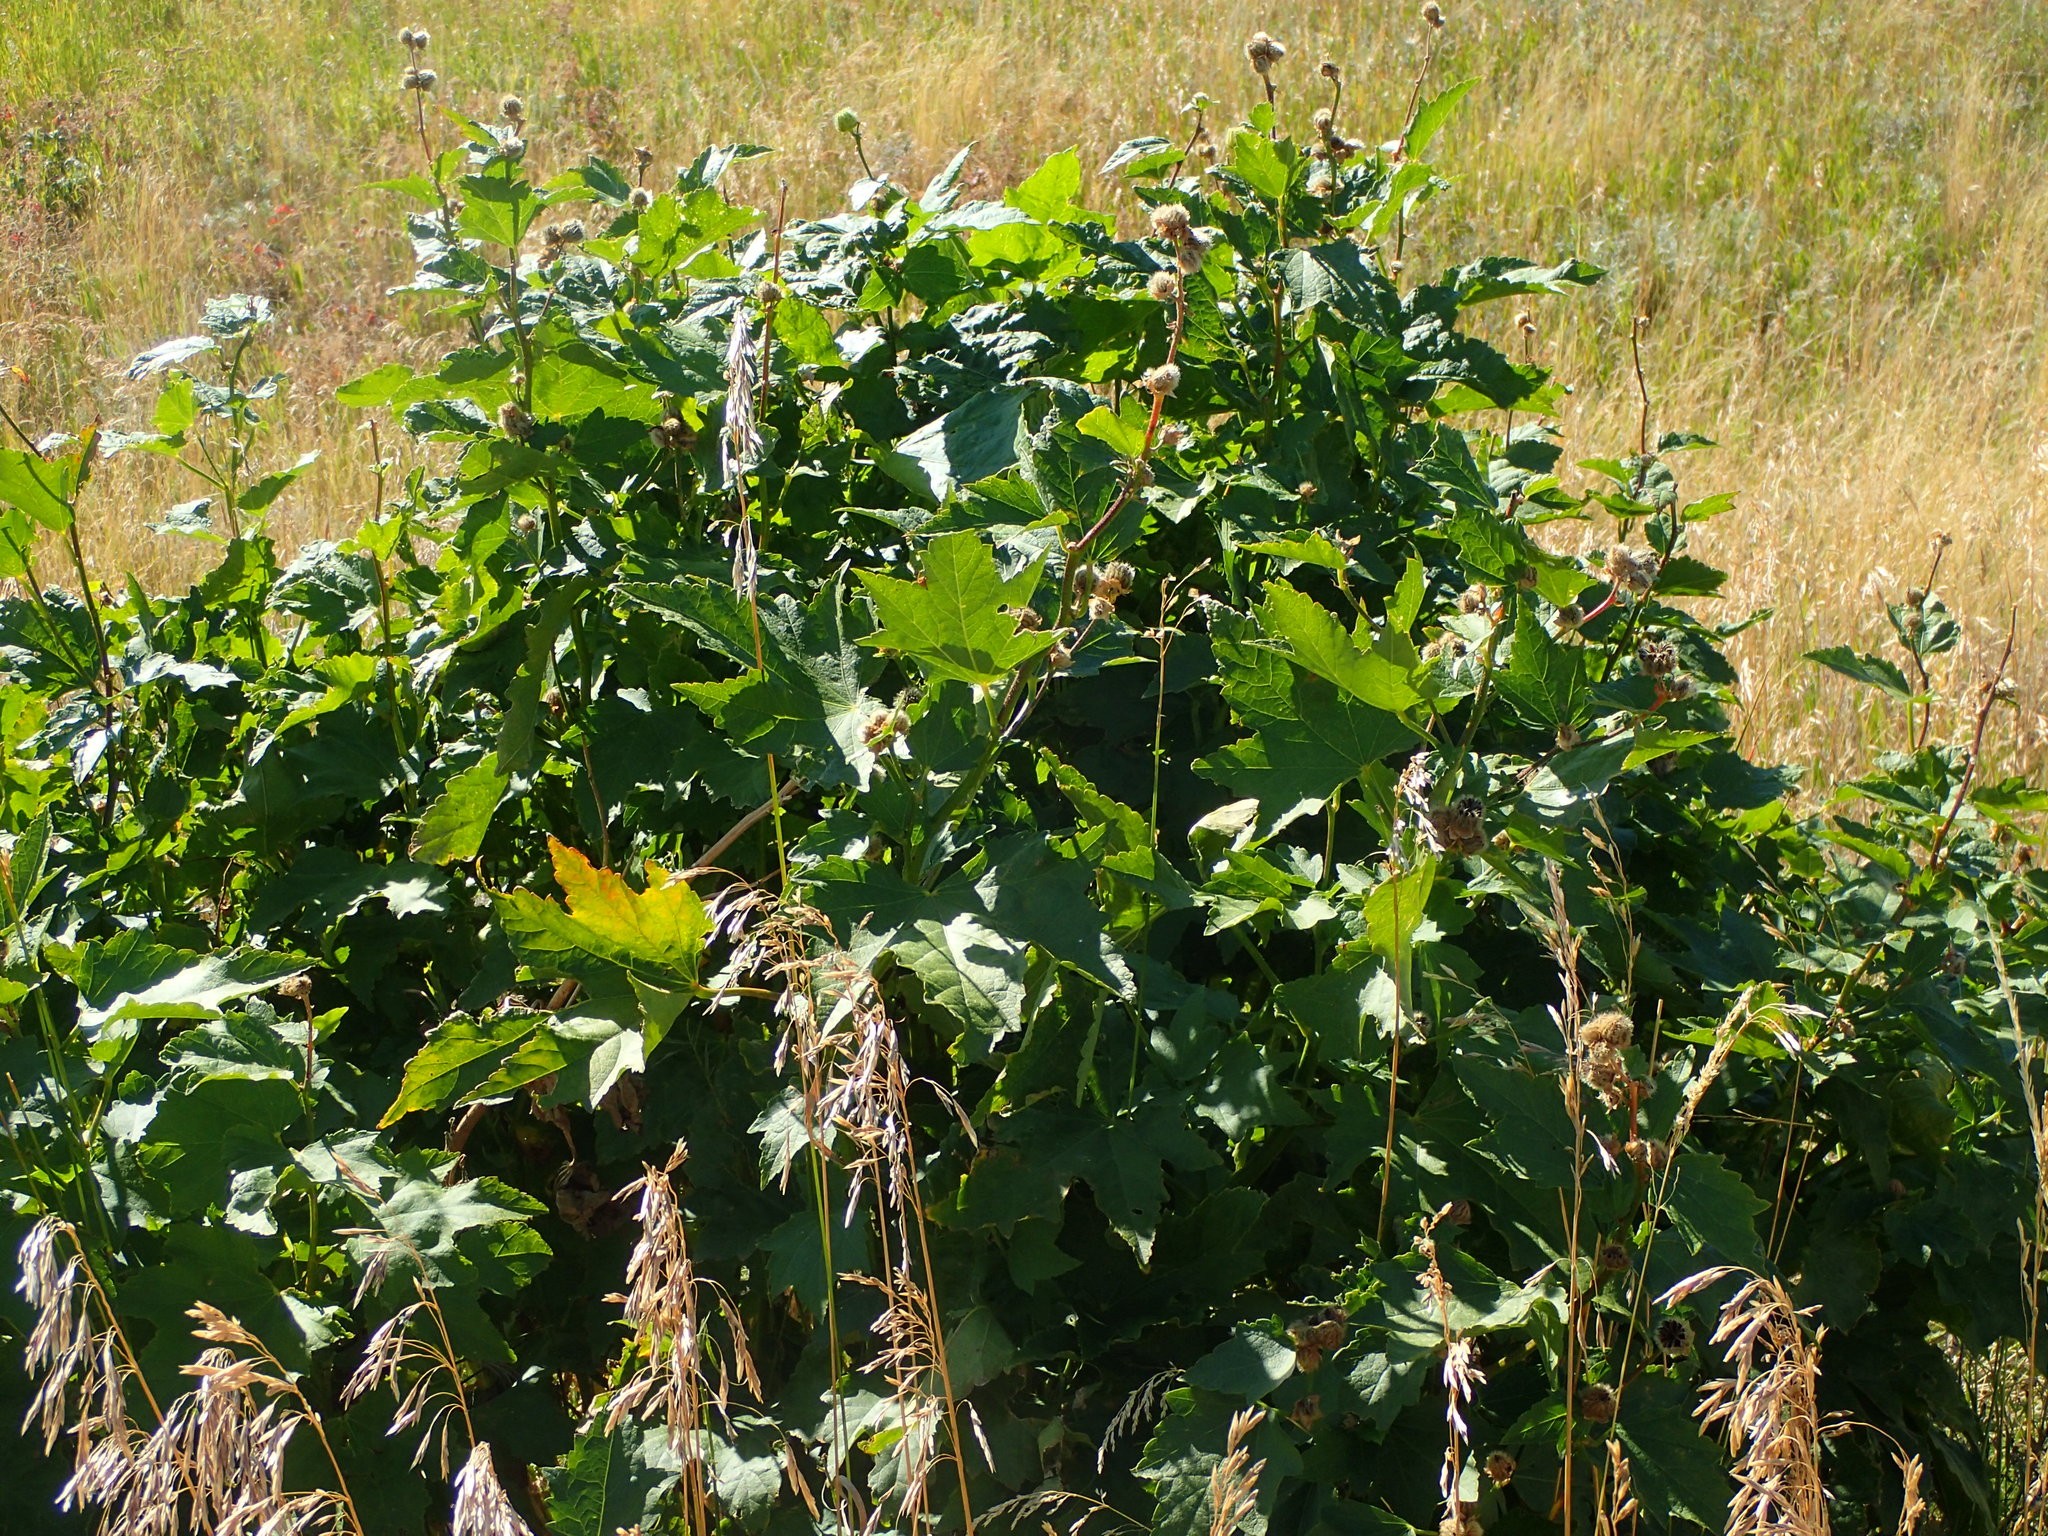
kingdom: Plantae
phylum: Tracheophyta
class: Magnoliopsida
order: Malvales
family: Malvaceae
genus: Iliamna
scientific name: Iliamna rivularis
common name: Wild hollyhock
